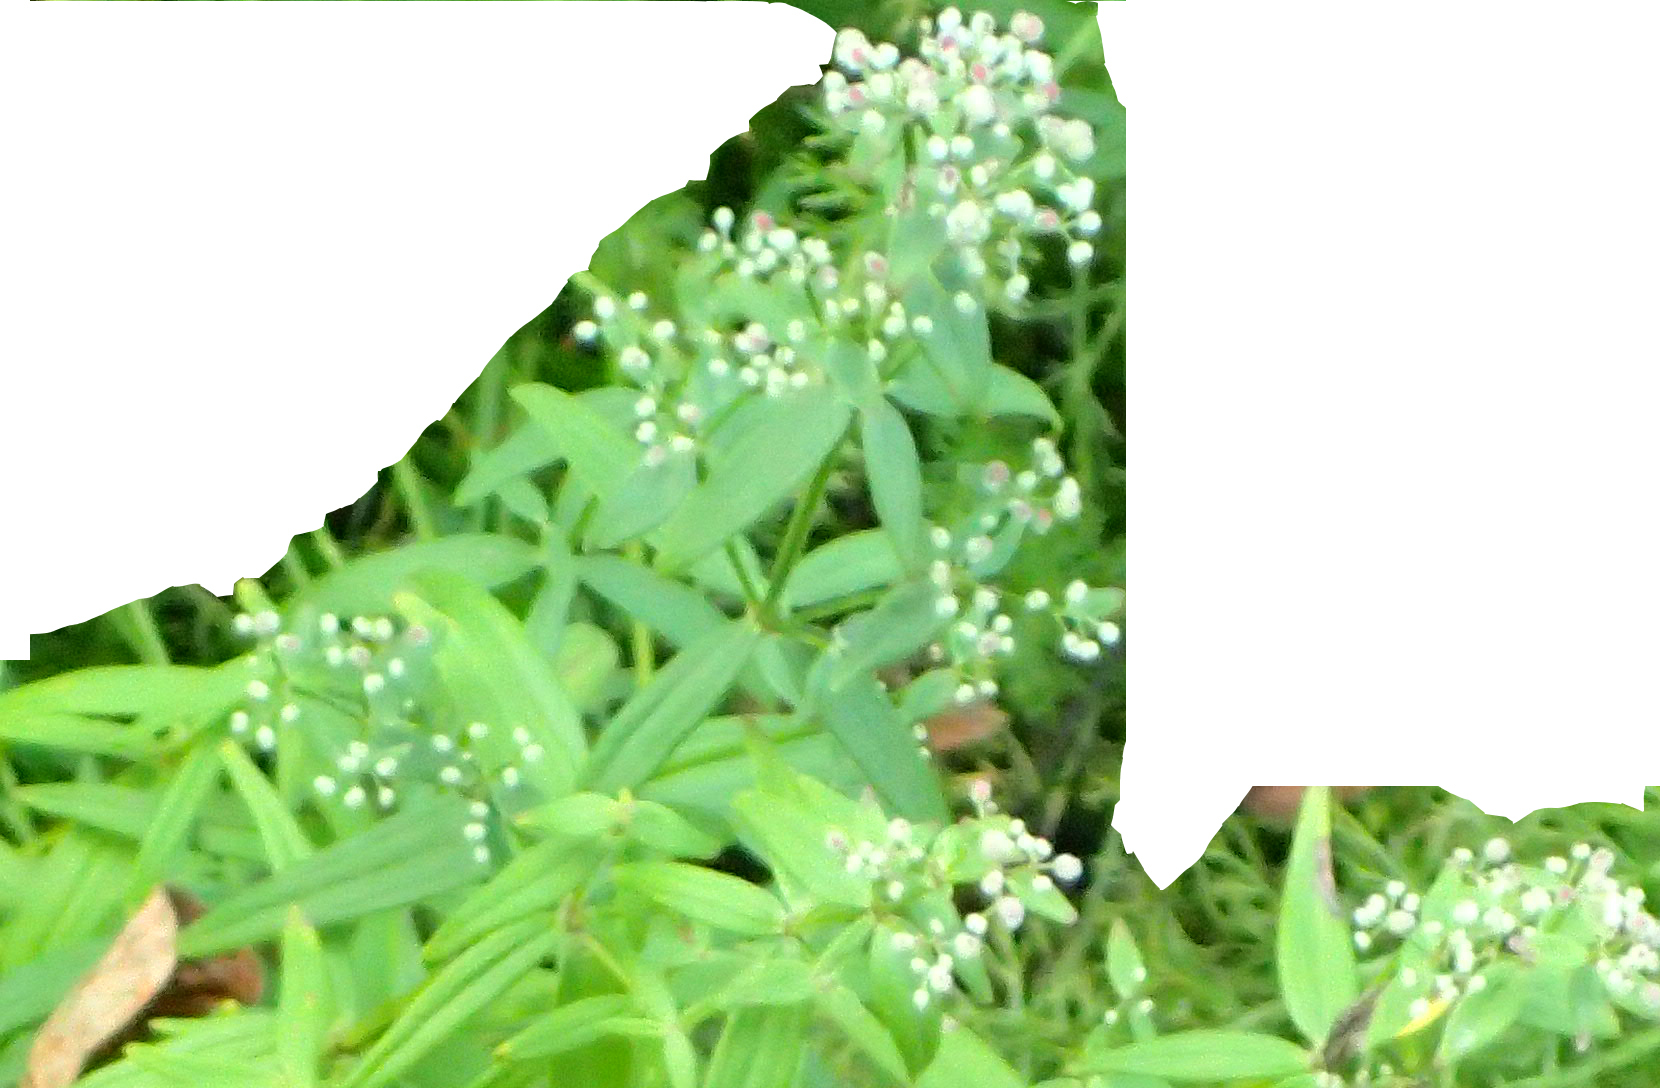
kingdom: Plantae
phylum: Tracheophyta
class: Magnoliopsida
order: Gentianales
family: Rubiaceae
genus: Galium
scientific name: Galium boreale
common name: Northern bedstraw
